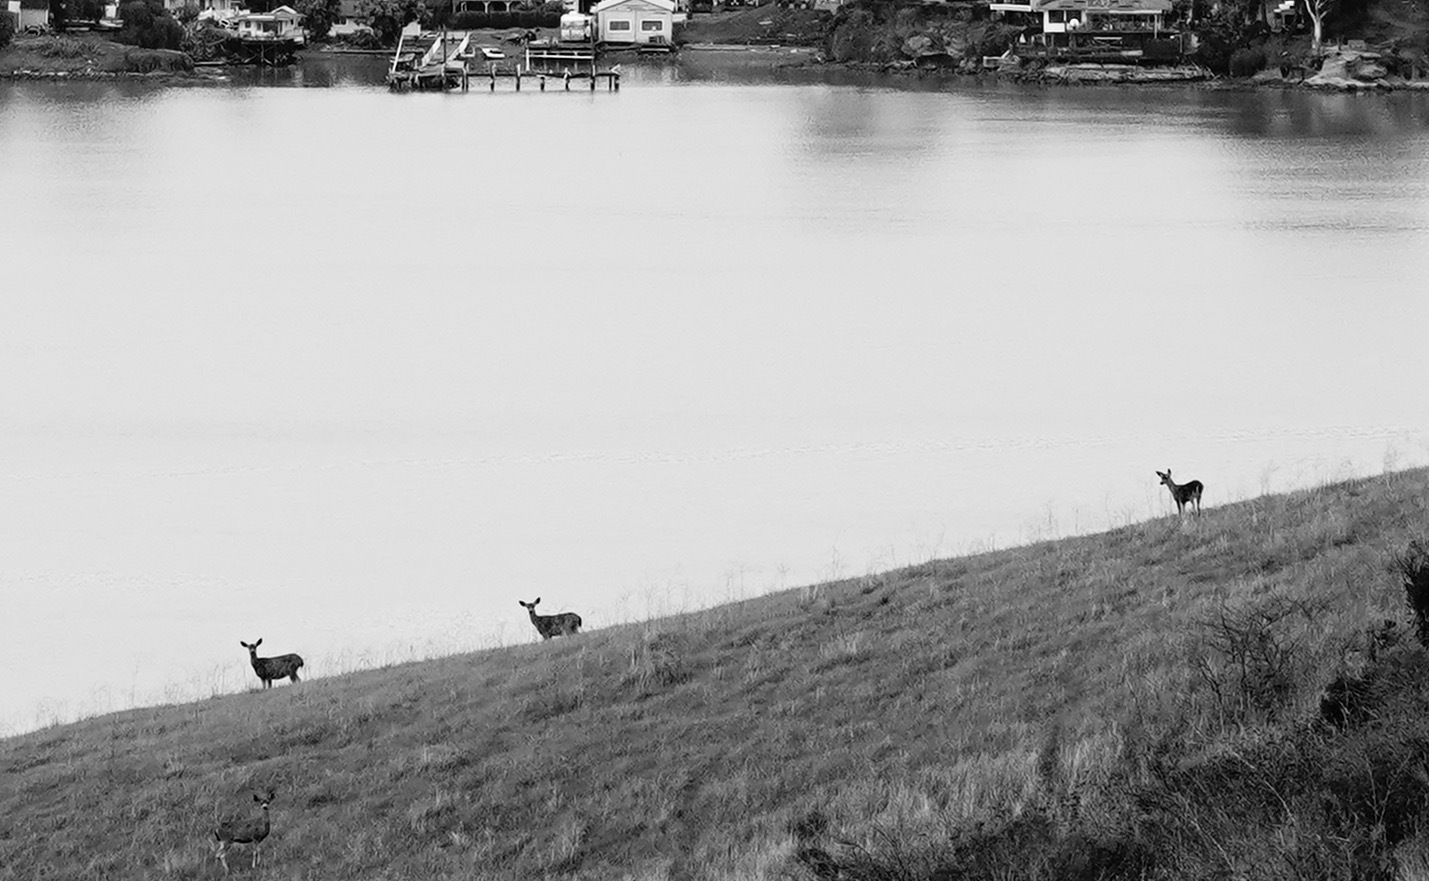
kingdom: Animalia
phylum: Chordata
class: Mammalia
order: Artiodactyla
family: Cervidae
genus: Odocoileus
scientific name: Odocoileus hemionus
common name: Mule deer
